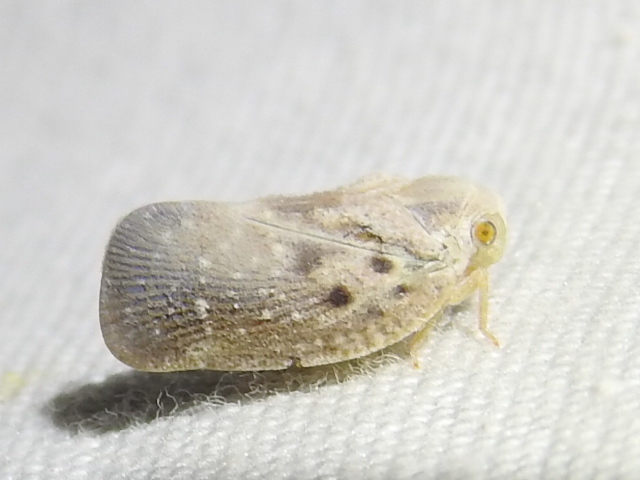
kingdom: Animalia
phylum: Arthropoda
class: Insecta
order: Hemiptera
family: Flatidae
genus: Metcalfa
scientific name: Metcalfa pruinosa
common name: Citrus flatid planthopper
